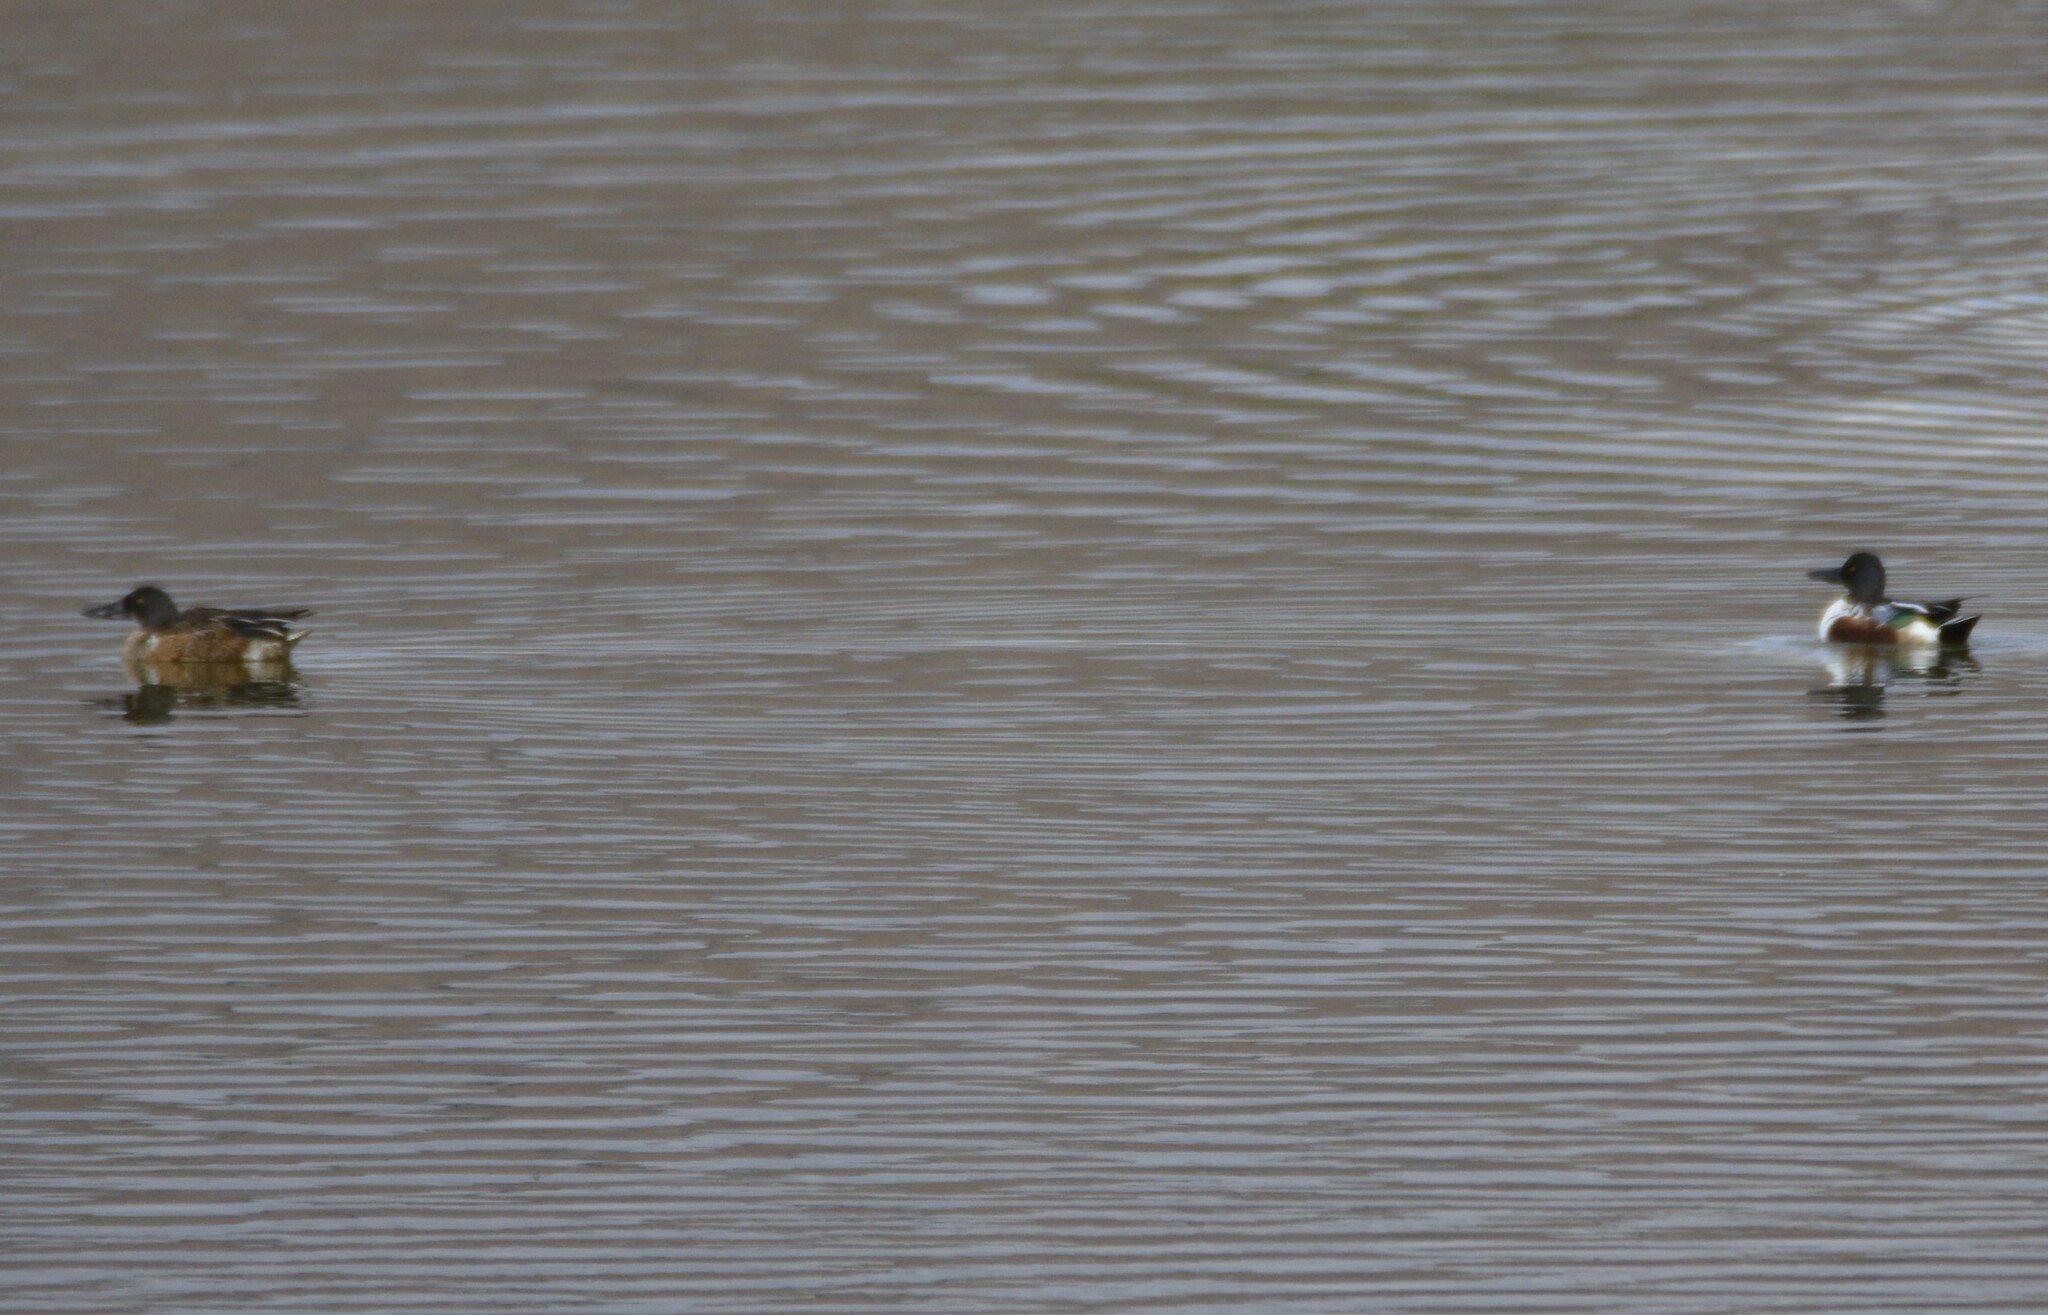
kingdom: Animalia
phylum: Chordata
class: Aves
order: Anseriformes
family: Anatidae
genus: Spatula
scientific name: Spatula clypeata
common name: Northern shoveler
